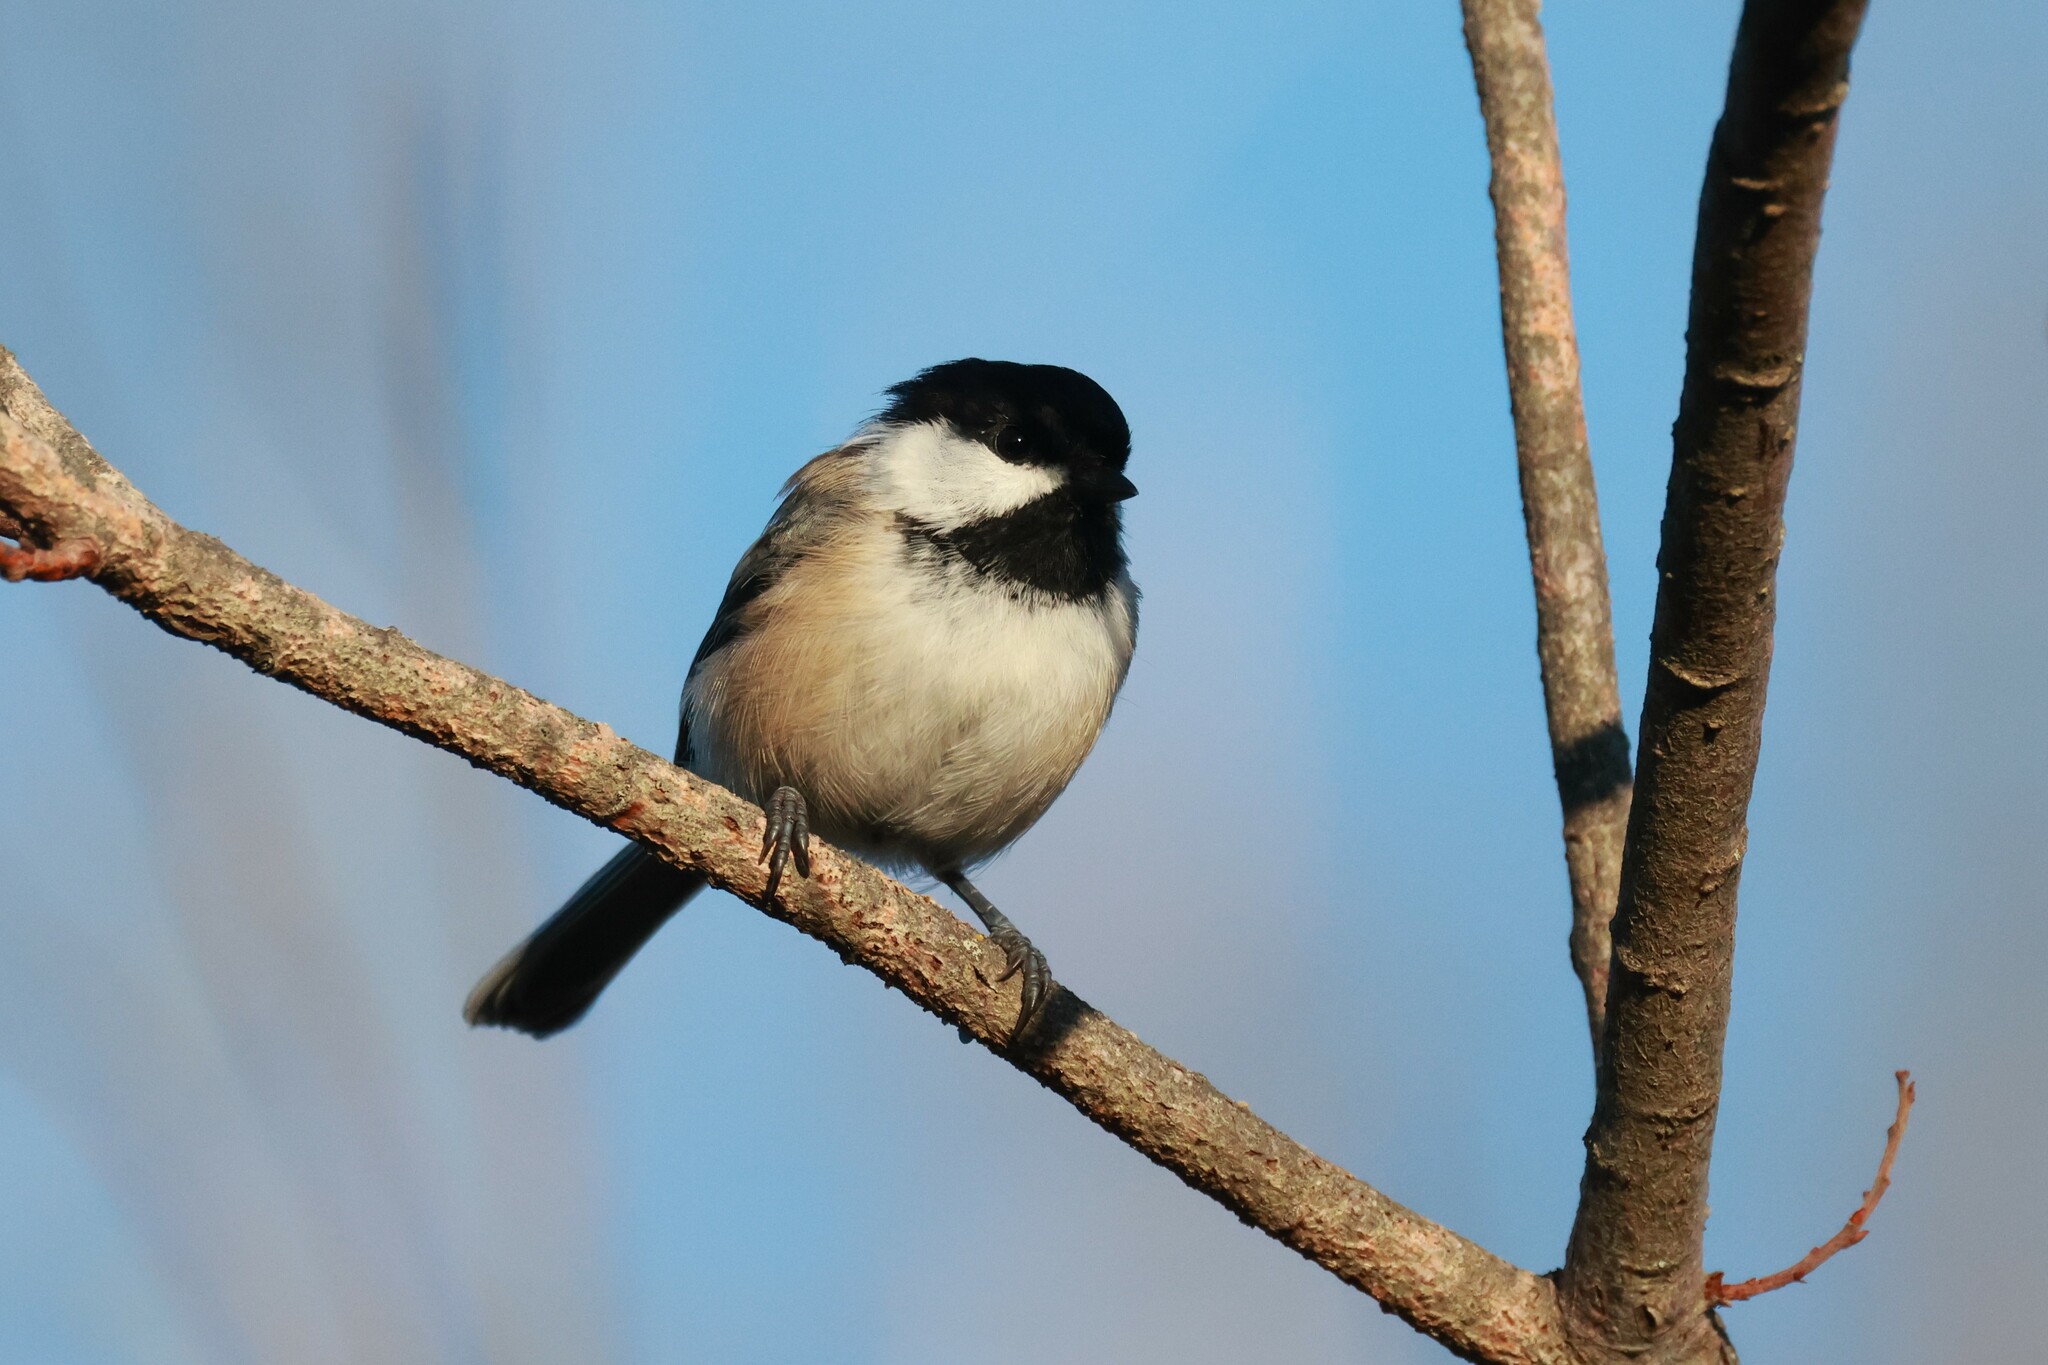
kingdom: Animalia
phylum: Chordata
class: Aves
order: Passeriformes
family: Paridae
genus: Poecile
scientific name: Poecile atricapillus
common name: Black-capped chickadee
